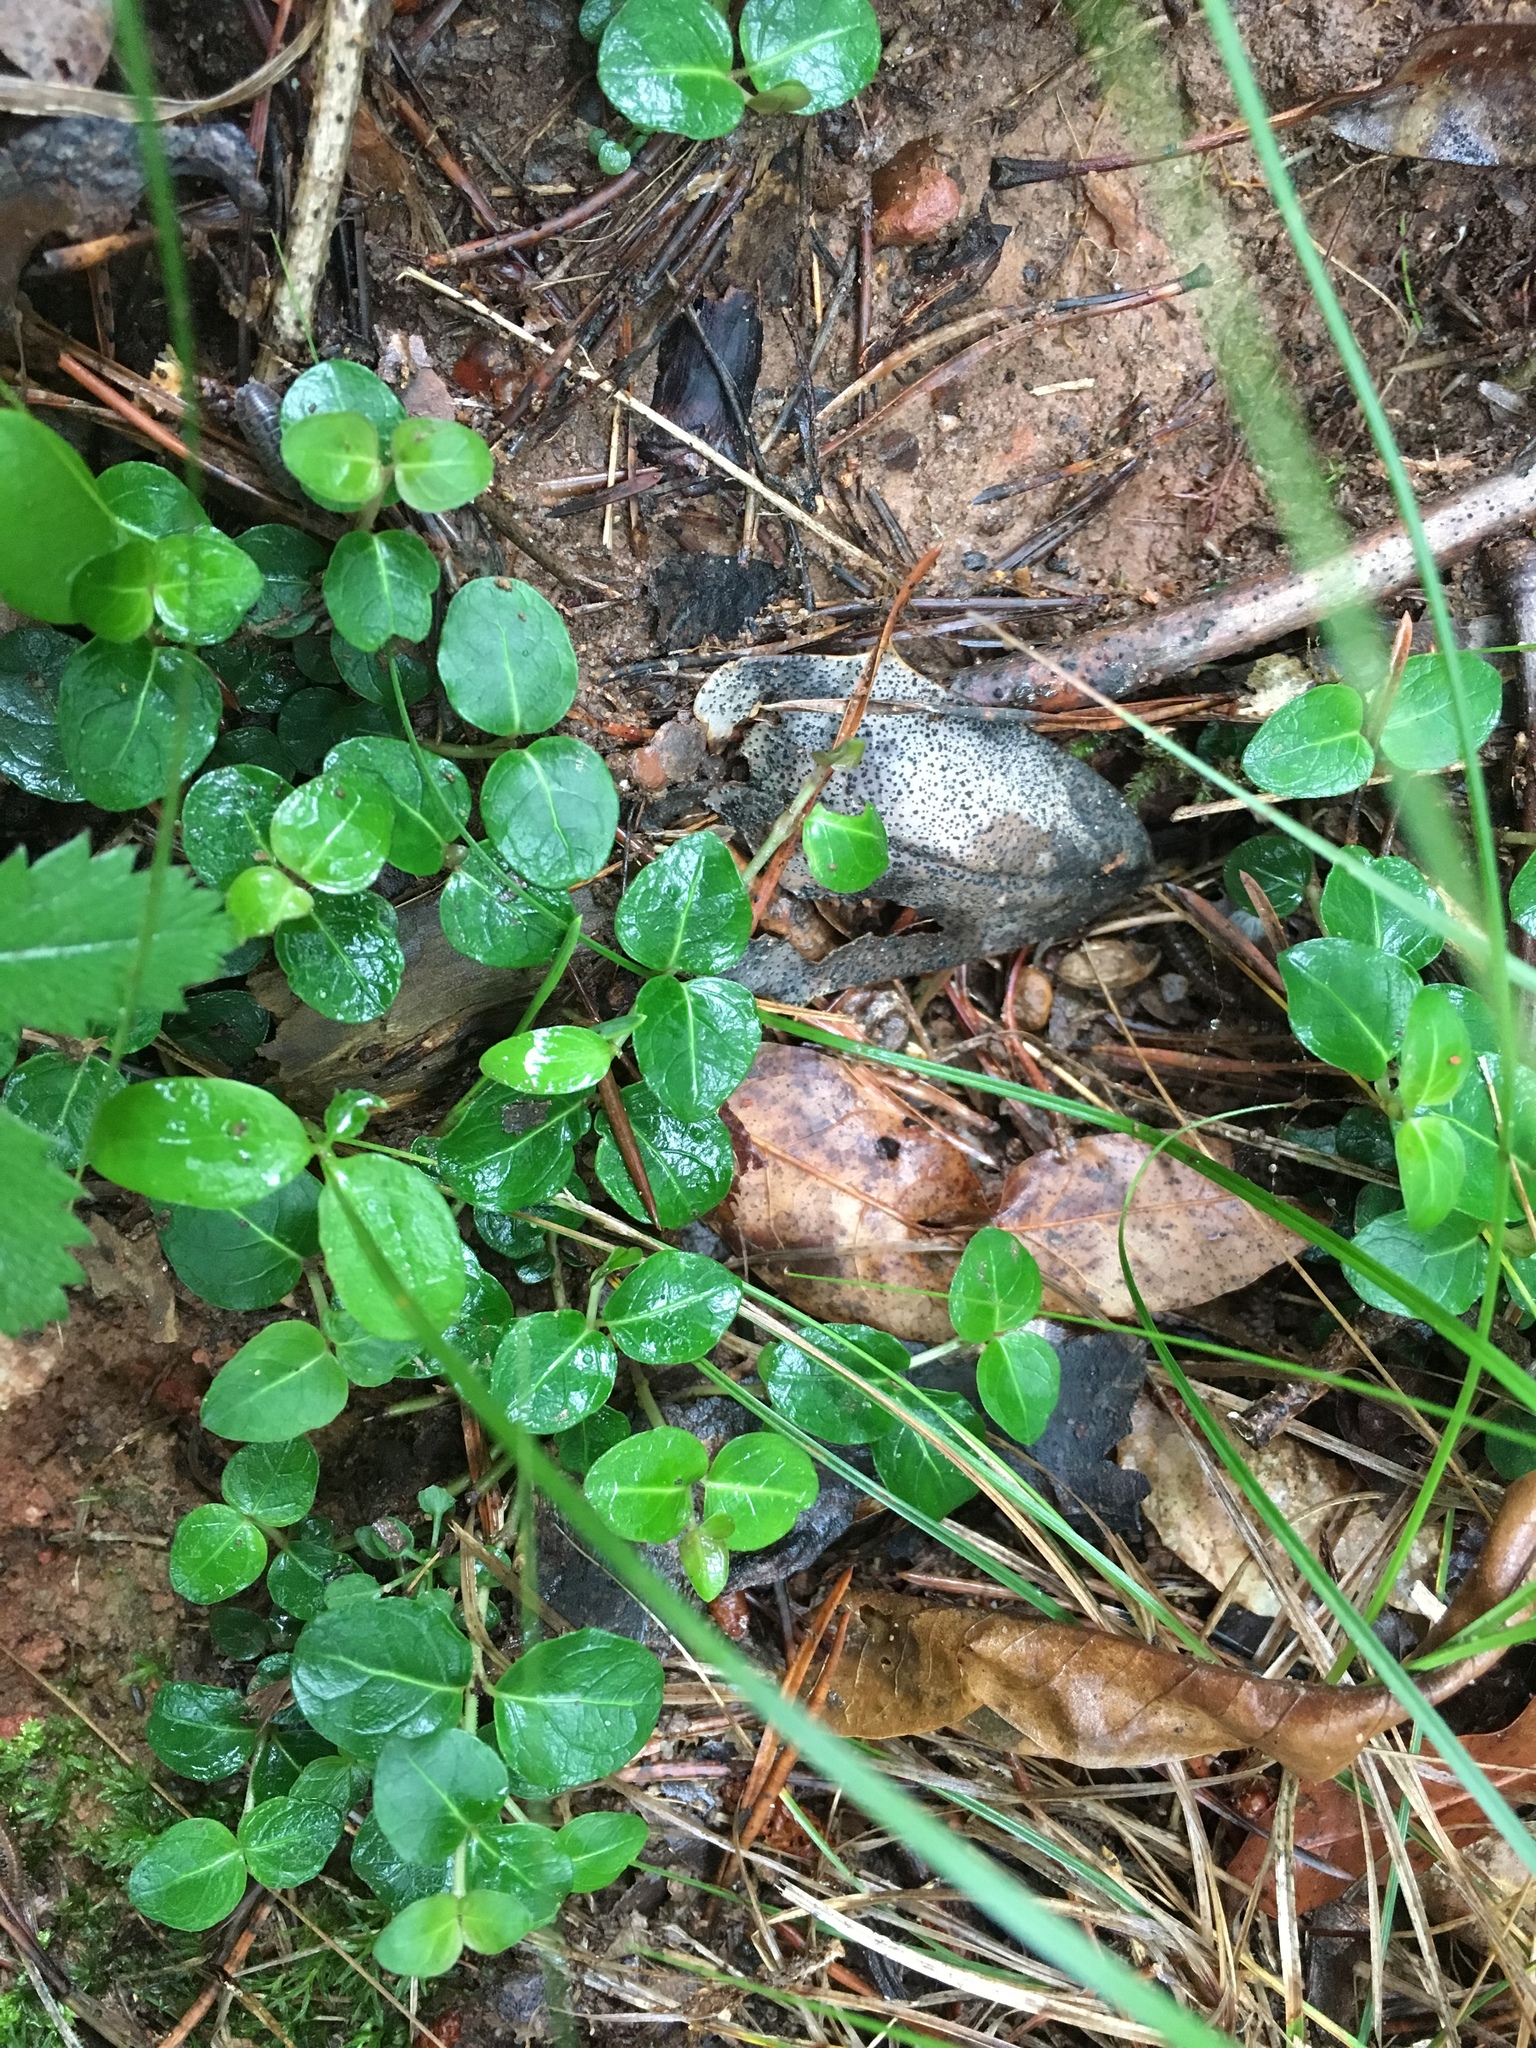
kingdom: Plantae
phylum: Tracheophyta
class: Magnoliopsida
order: Gentianales
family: Rubiaceae
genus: Mitchella
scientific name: Mitchella repens
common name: Partridge-berry
